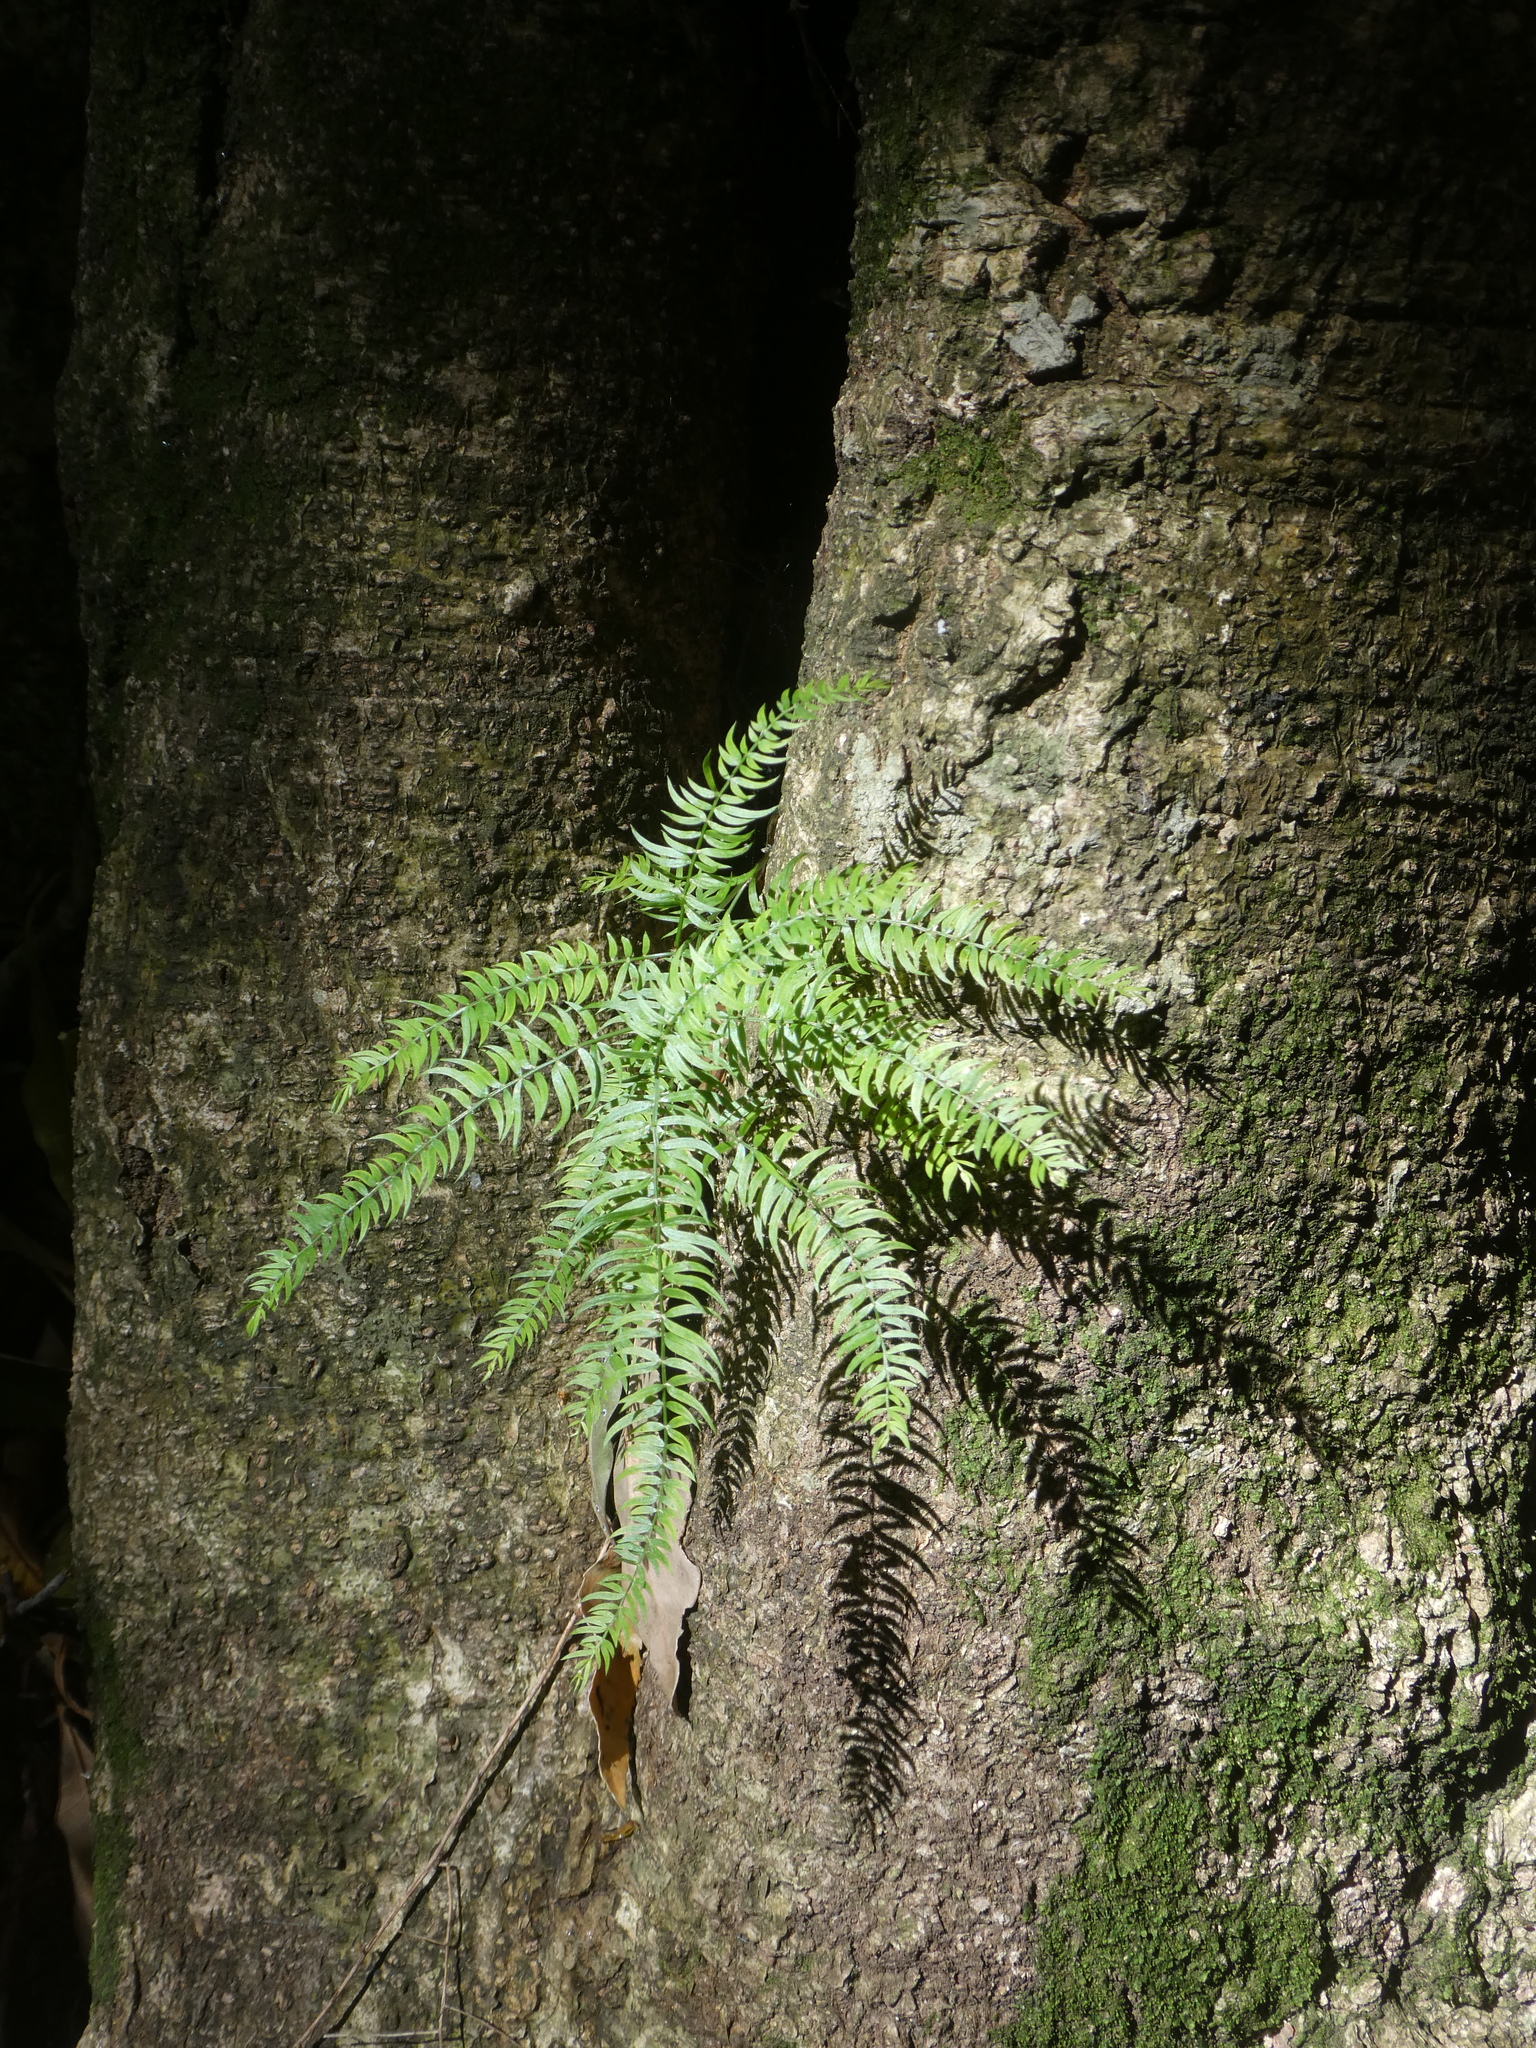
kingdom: Plantae
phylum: Tracheophyta
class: Liliopsida
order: Asparagales
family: Asparagaceae
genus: Asparagus
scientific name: Asparagus scandens
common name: Asparagus-fern
